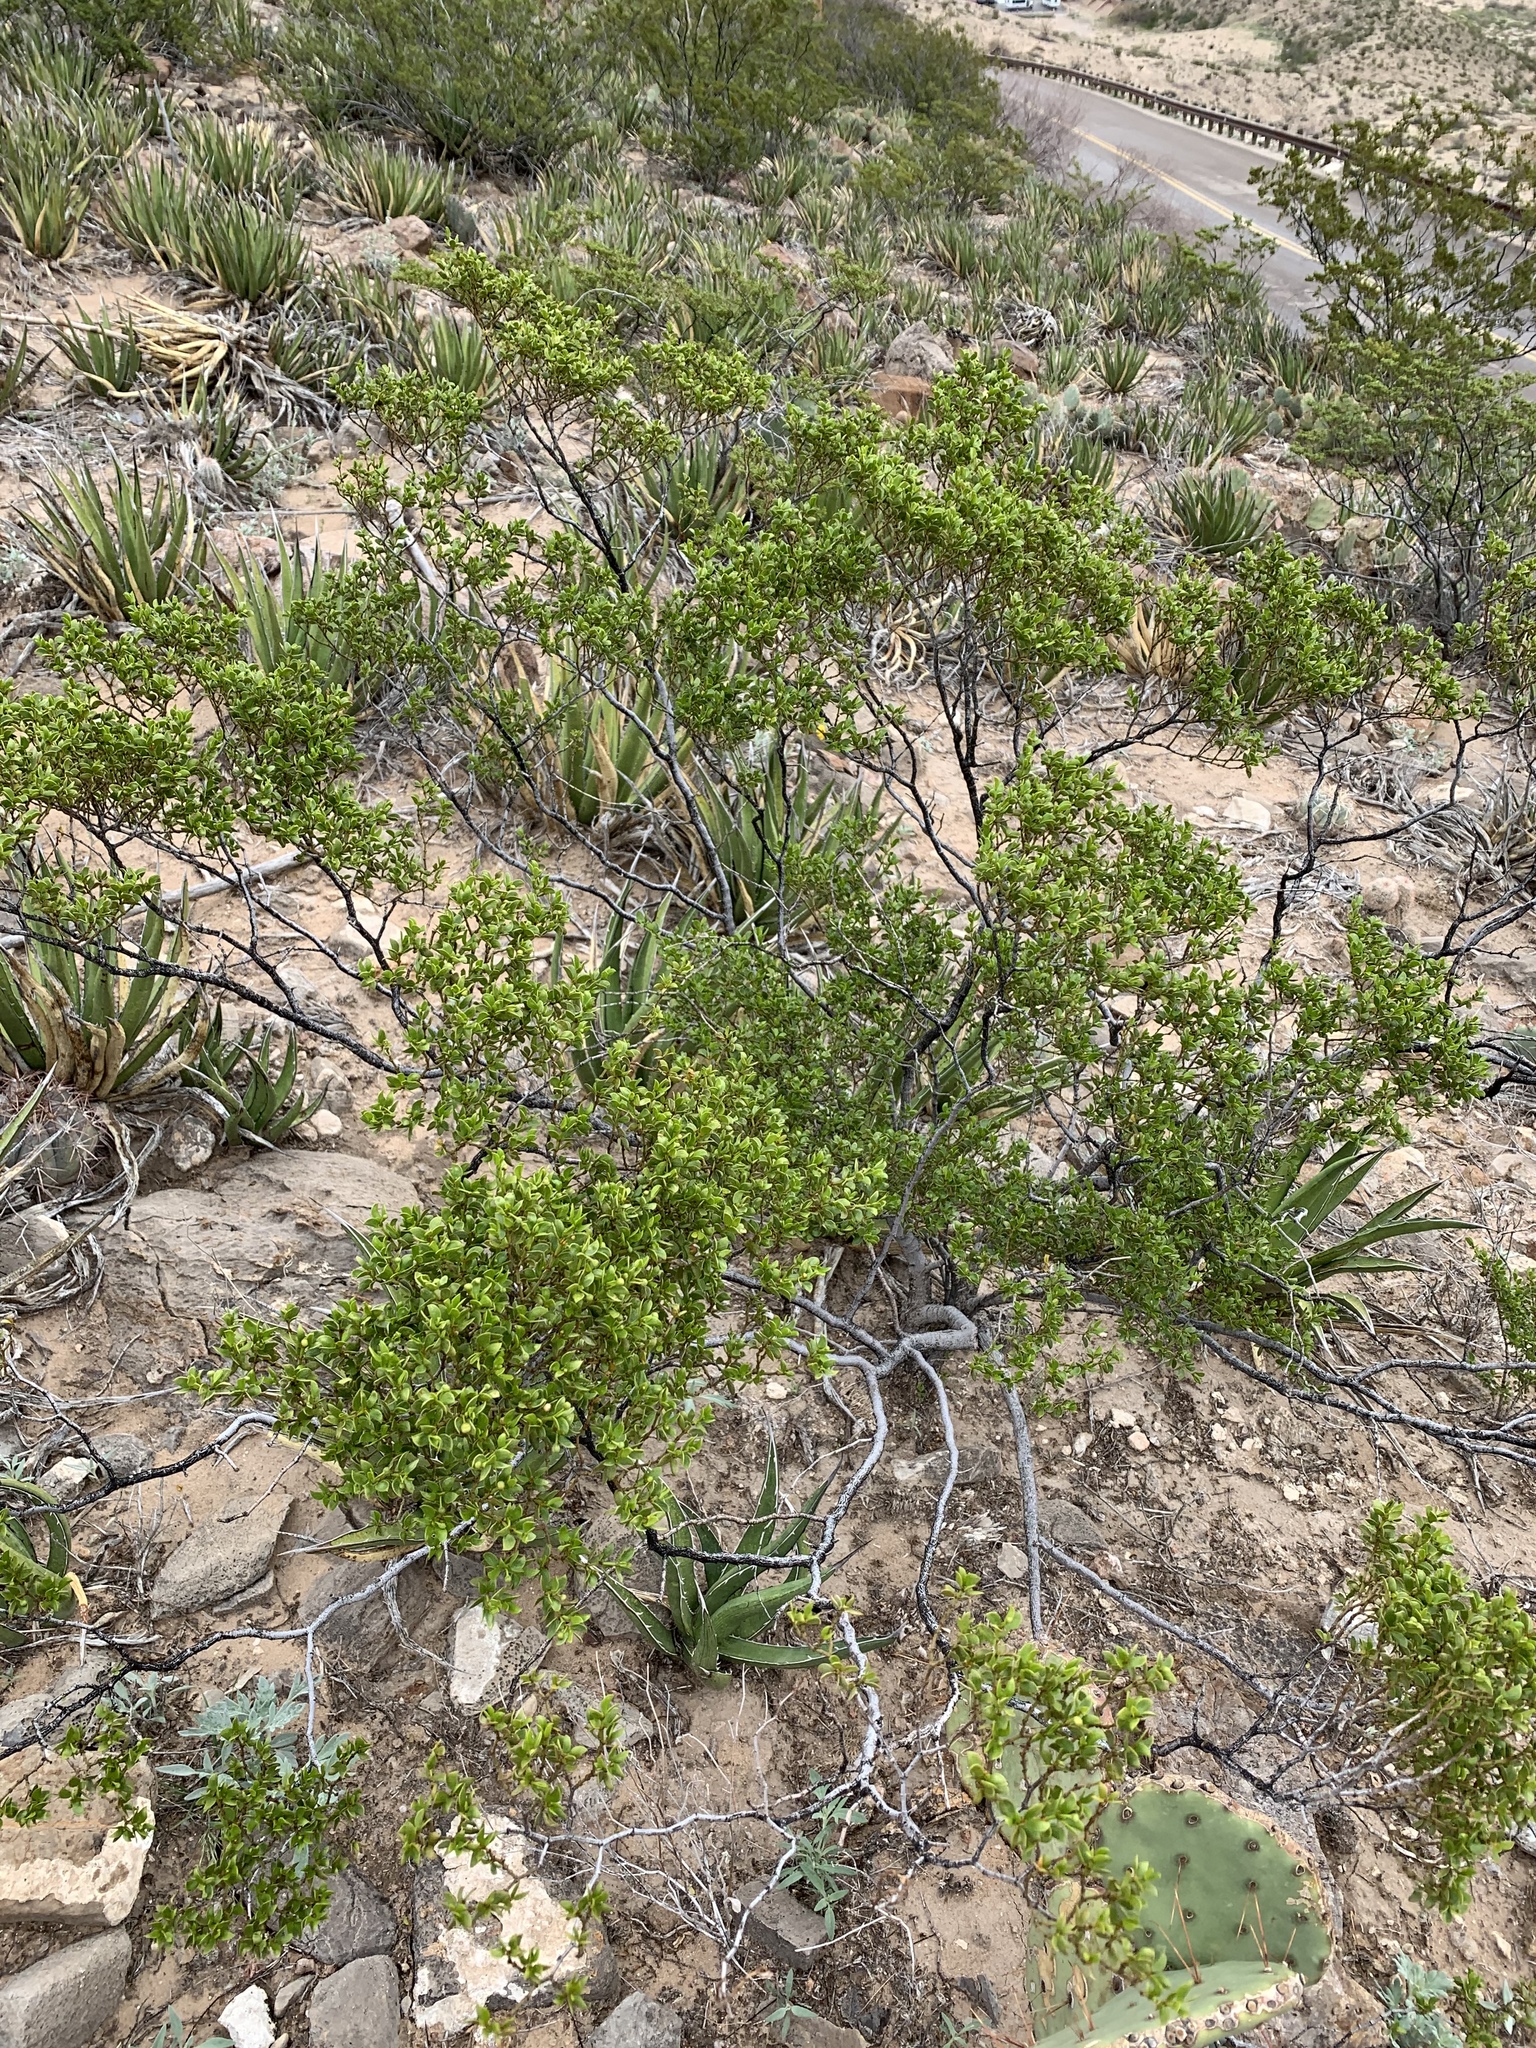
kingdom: Plantae
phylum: Tracheophyta
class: Magnoliopsida
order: Zygophyllales
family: Zygophyllaceae
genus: Larrea
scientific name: Larrea tridentata
